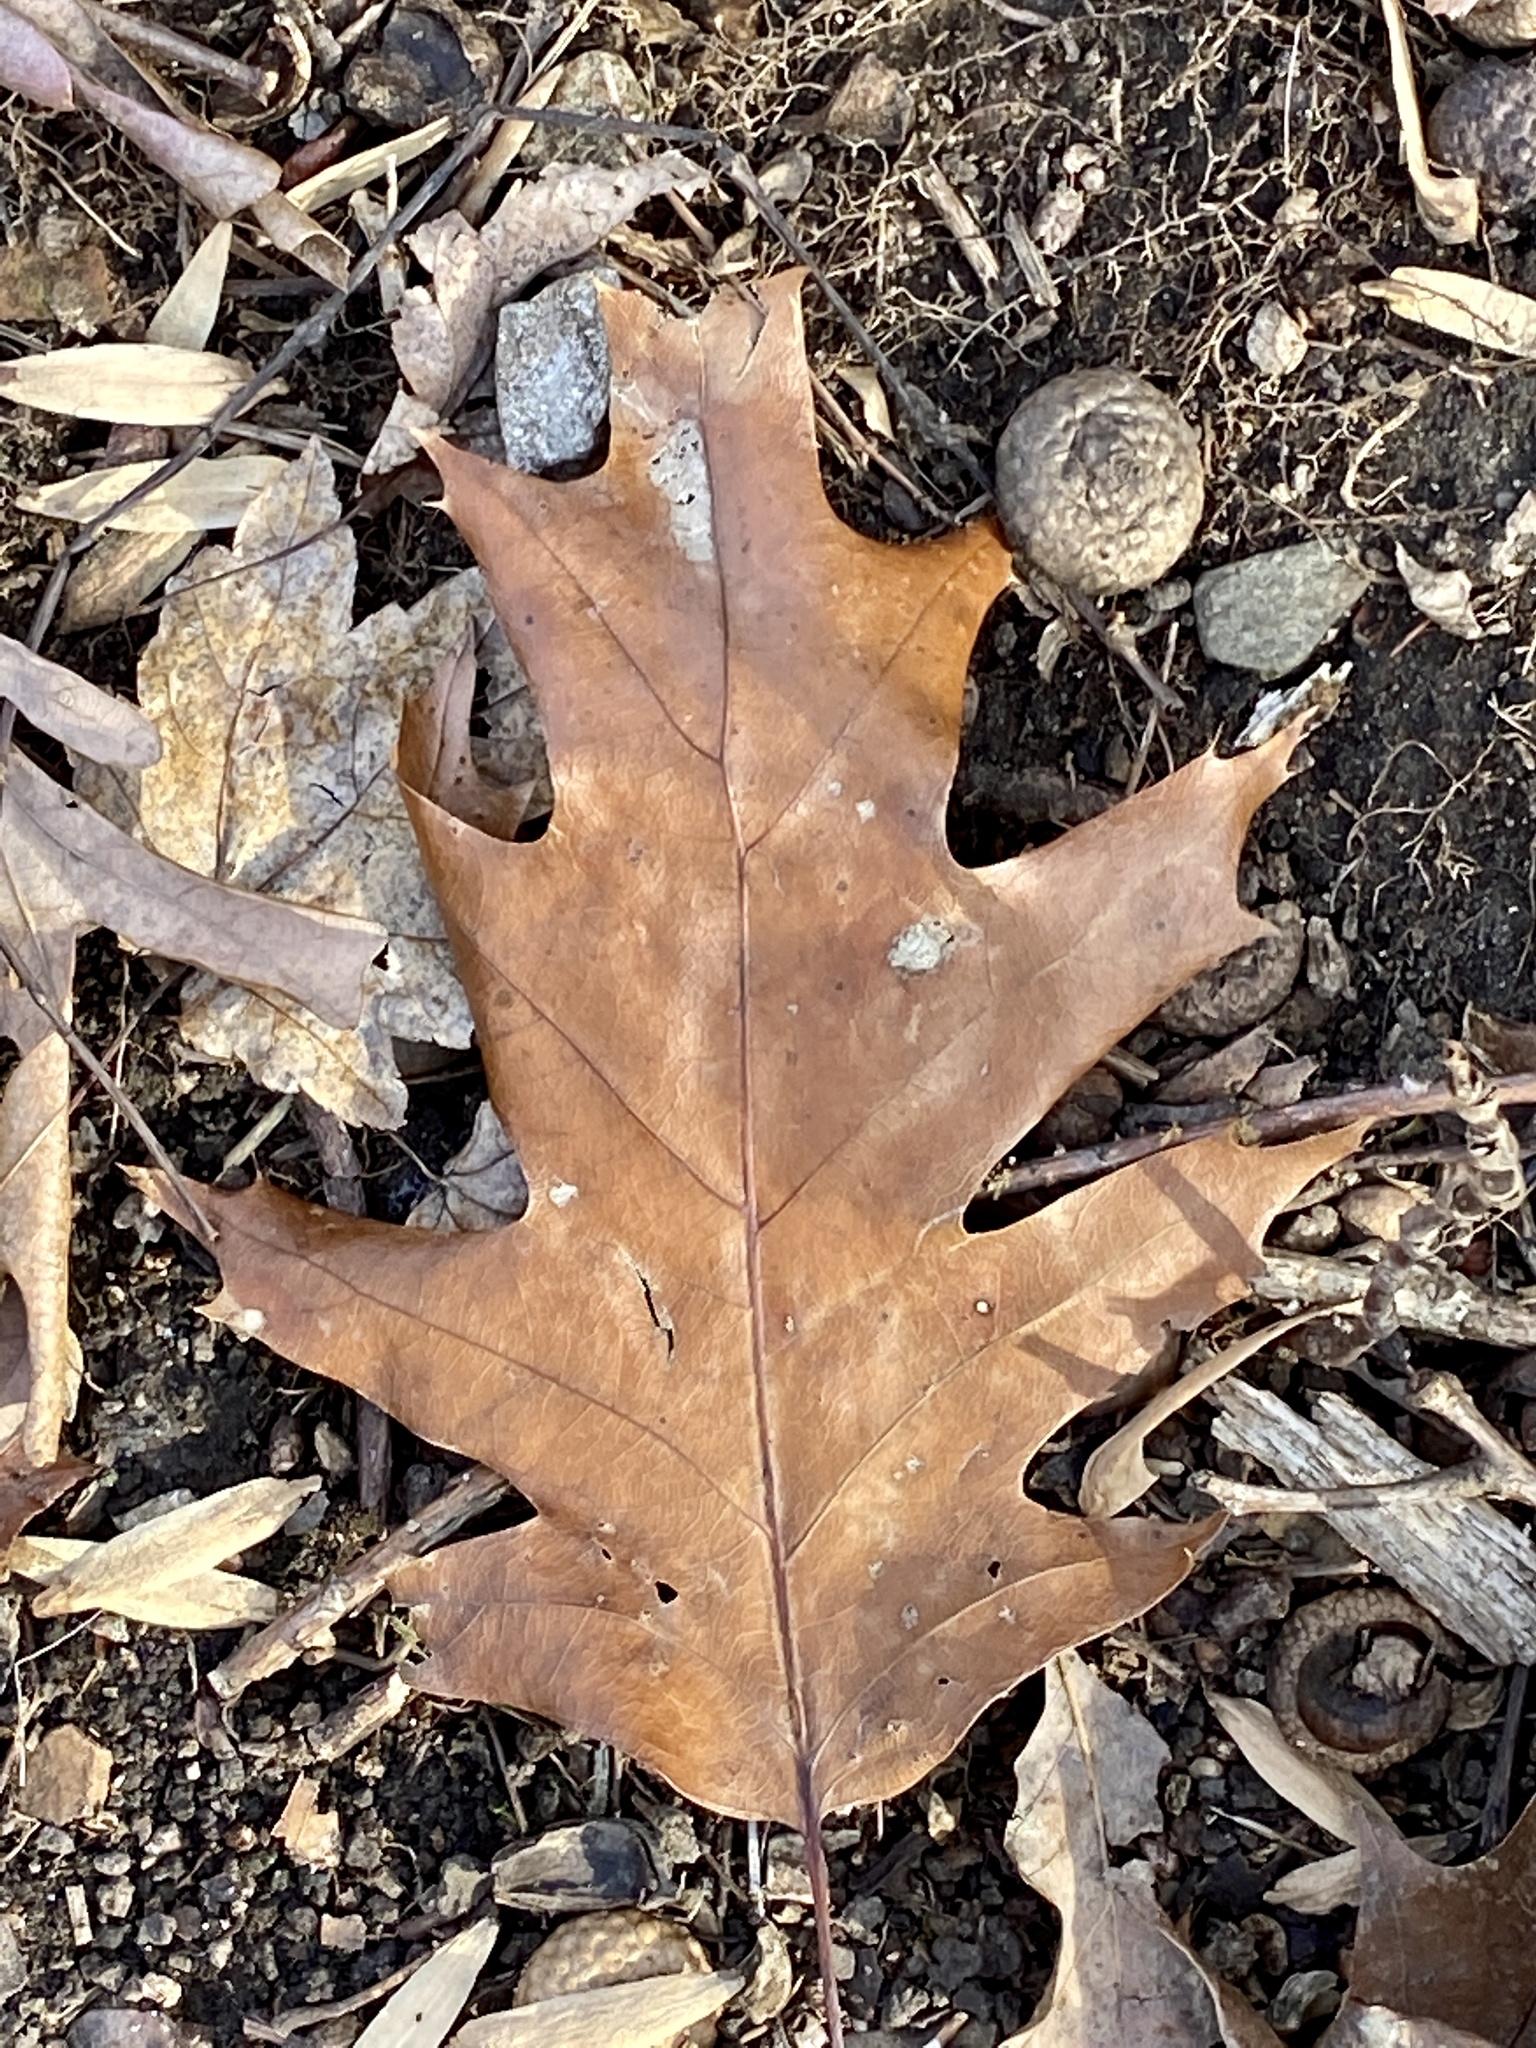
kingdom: Plantae
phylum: Tracheophyta
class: Magnoliopsida
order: Fagales
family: Fagaceae
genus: Quercus
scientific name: Quercus rubra
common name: Red oak
